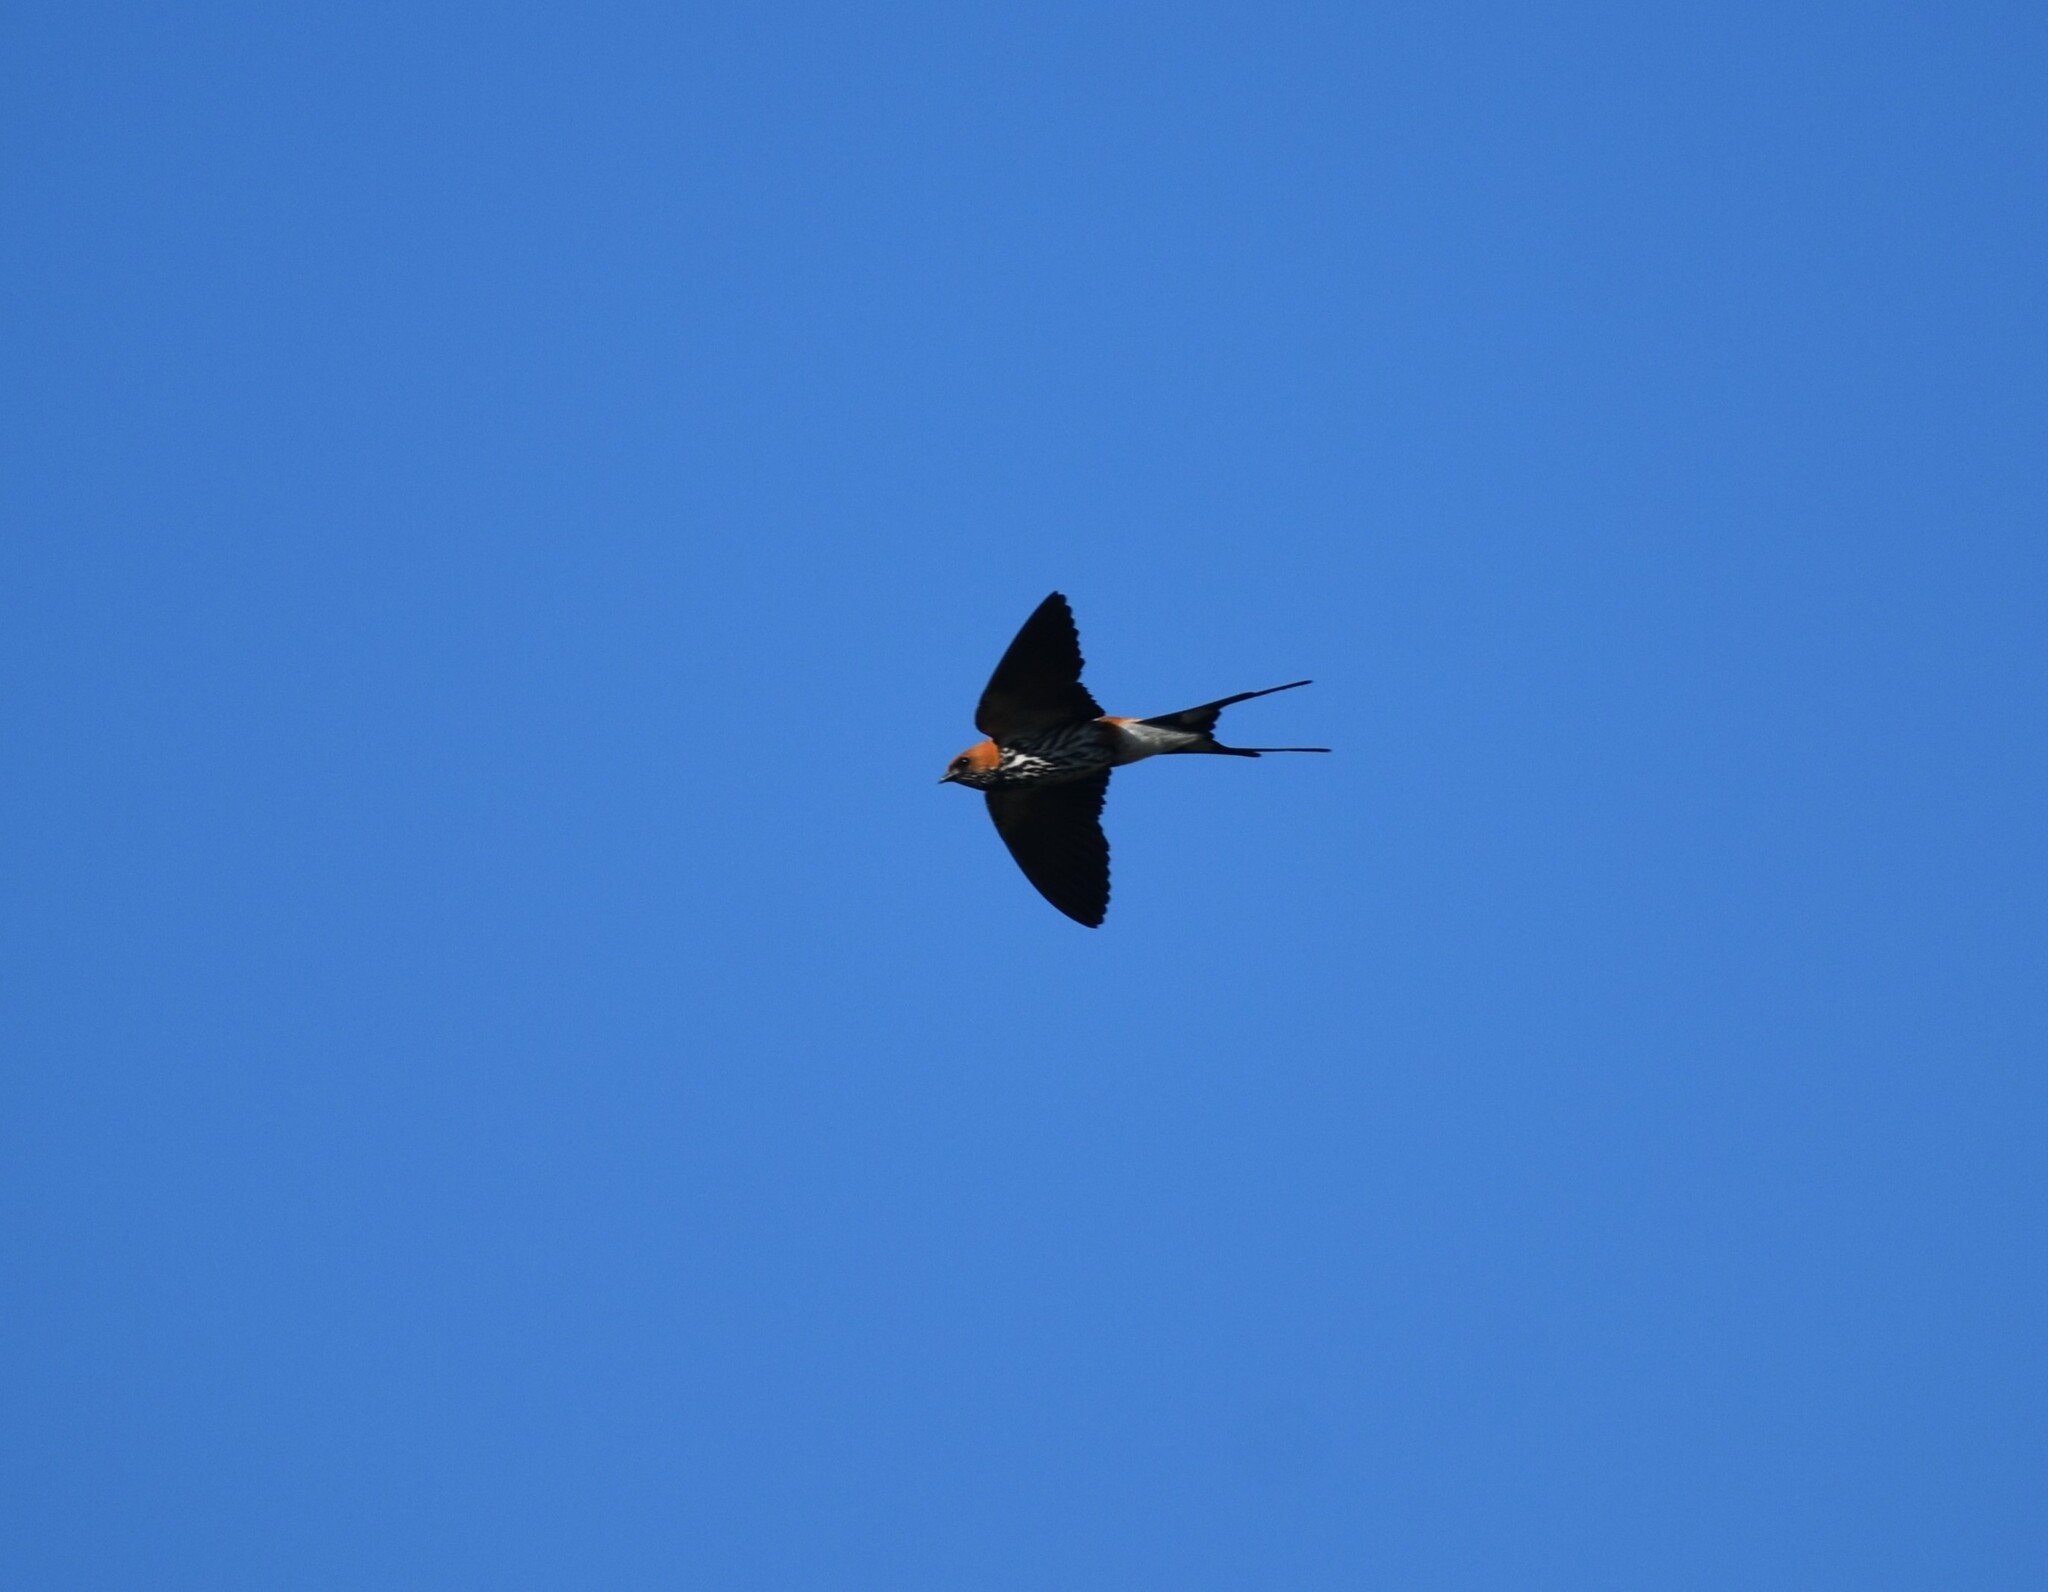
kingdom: Animalia
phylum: Chordata
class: Aves
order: Passeriformes
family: Hirundinidae
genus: Cecropis
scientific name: Cecropis abyssinica
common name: Lesser striped-swallow
